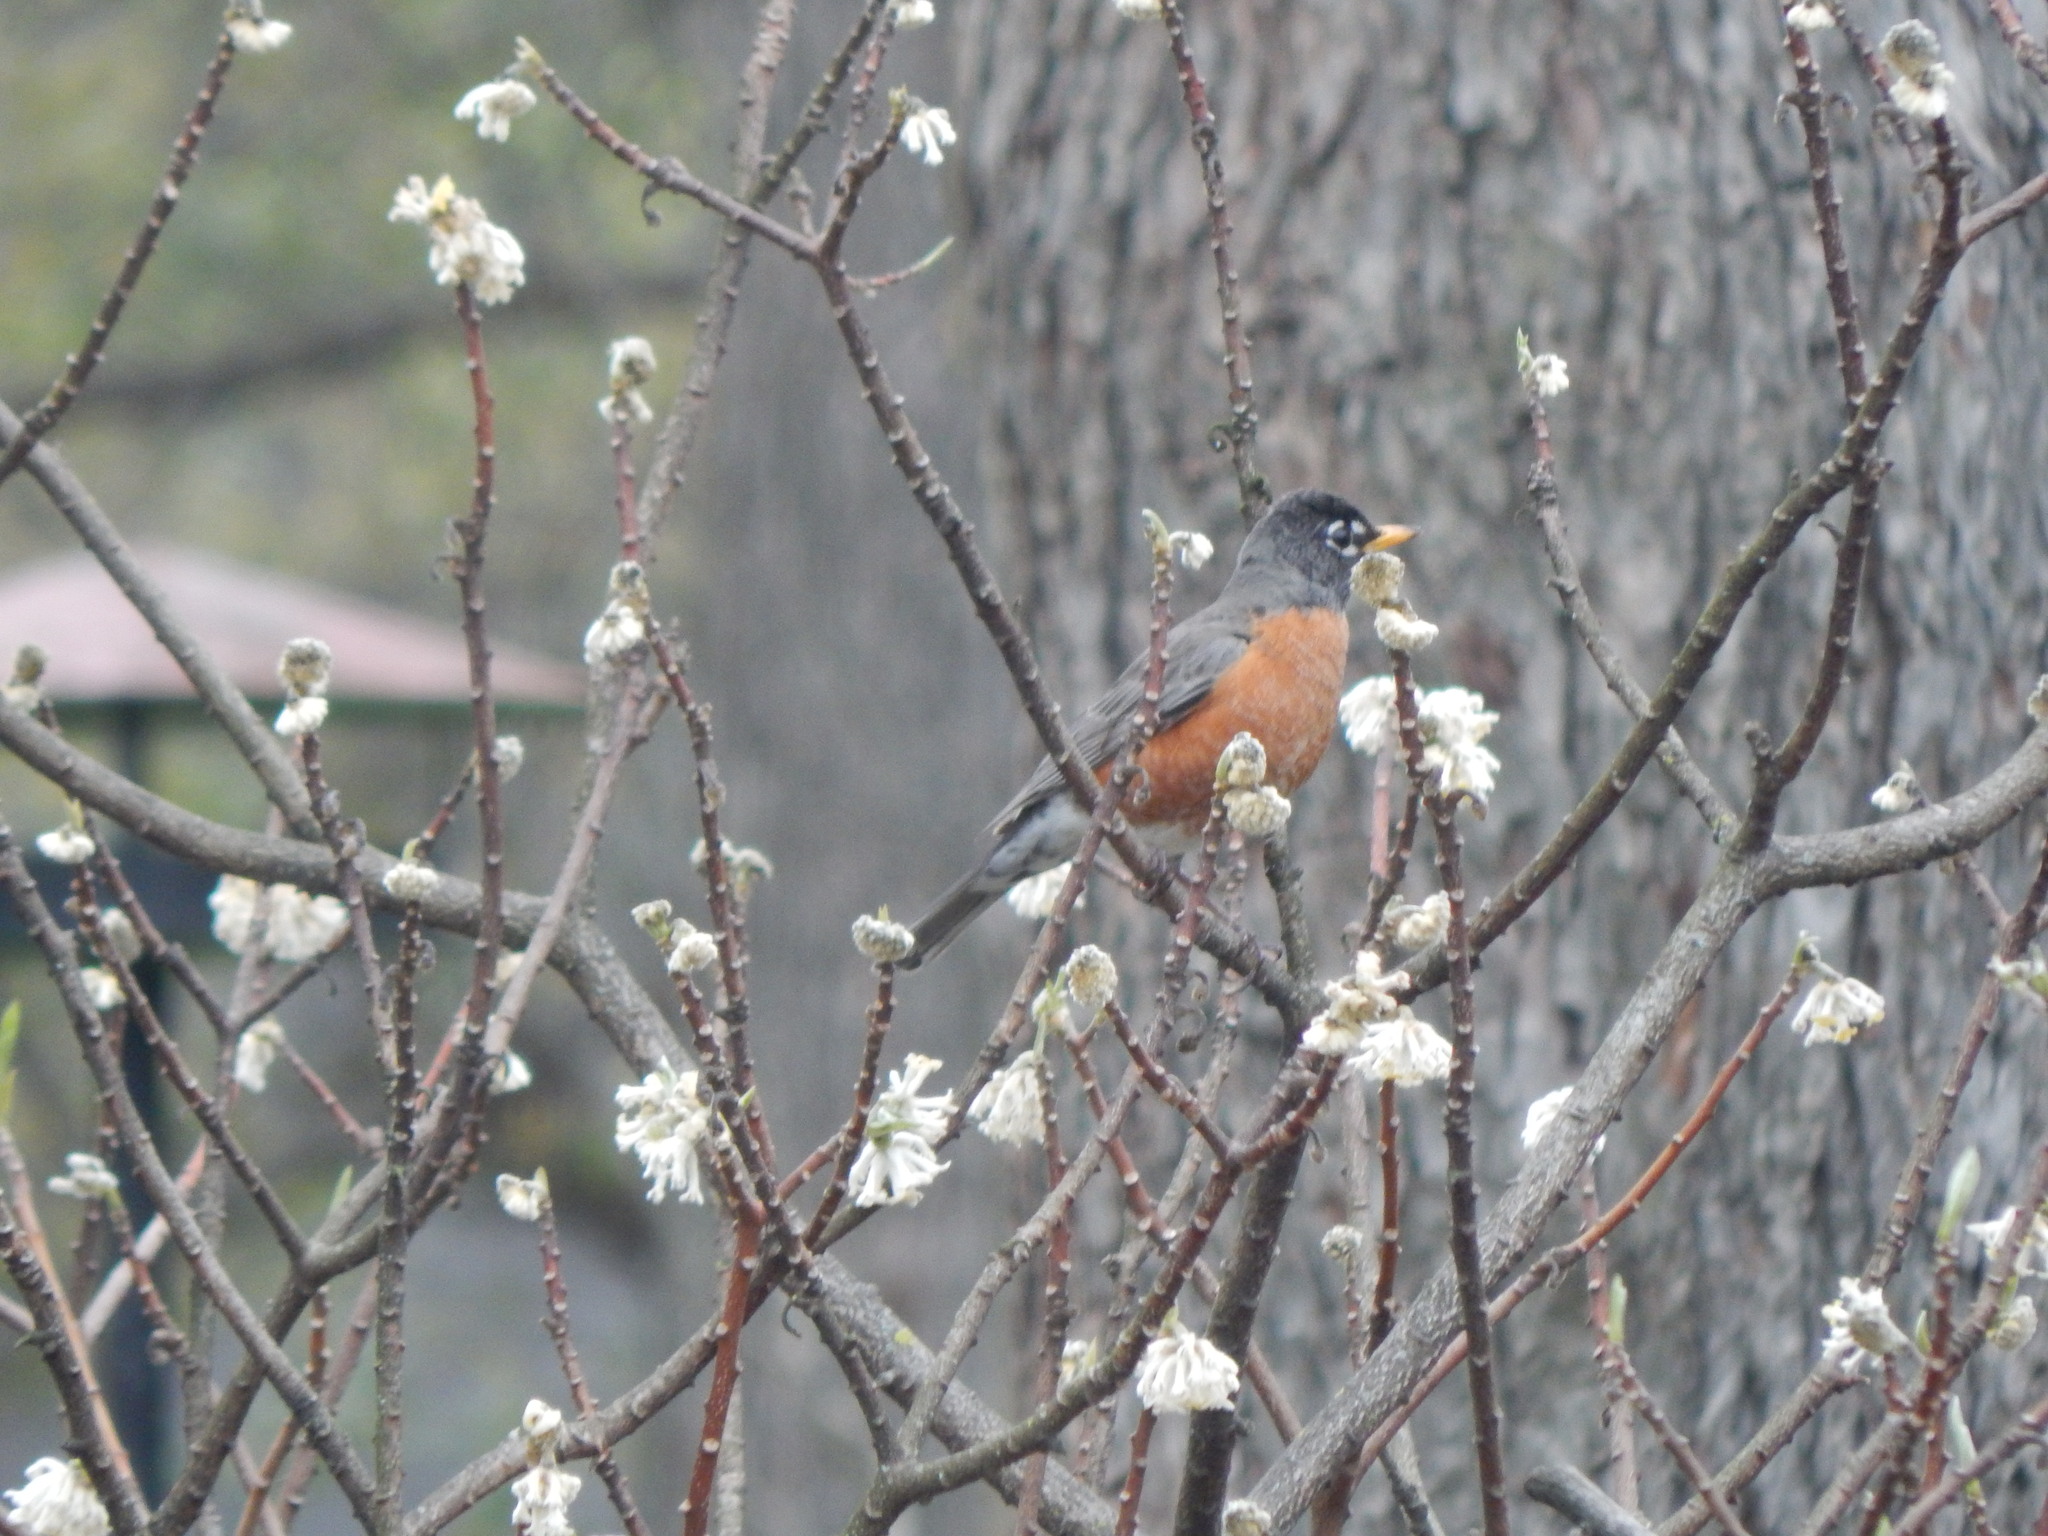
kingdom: Animalia
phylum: Chordata
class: Aves
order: Passeriformes
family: Turdidae
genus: Turdus
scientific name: Turdus migratorius
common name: American robin
